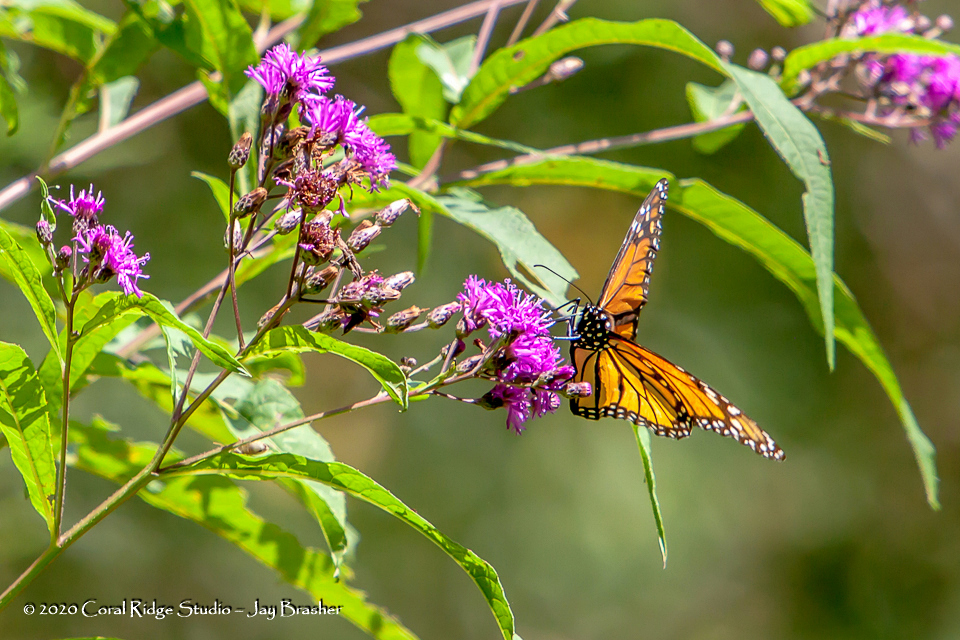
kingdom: Animalia
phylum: Arthropoda
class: Insecta
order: Lepidoptera
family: Nymphalidae
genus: Danaus
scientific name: Danaus plexippus
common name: Monarch
